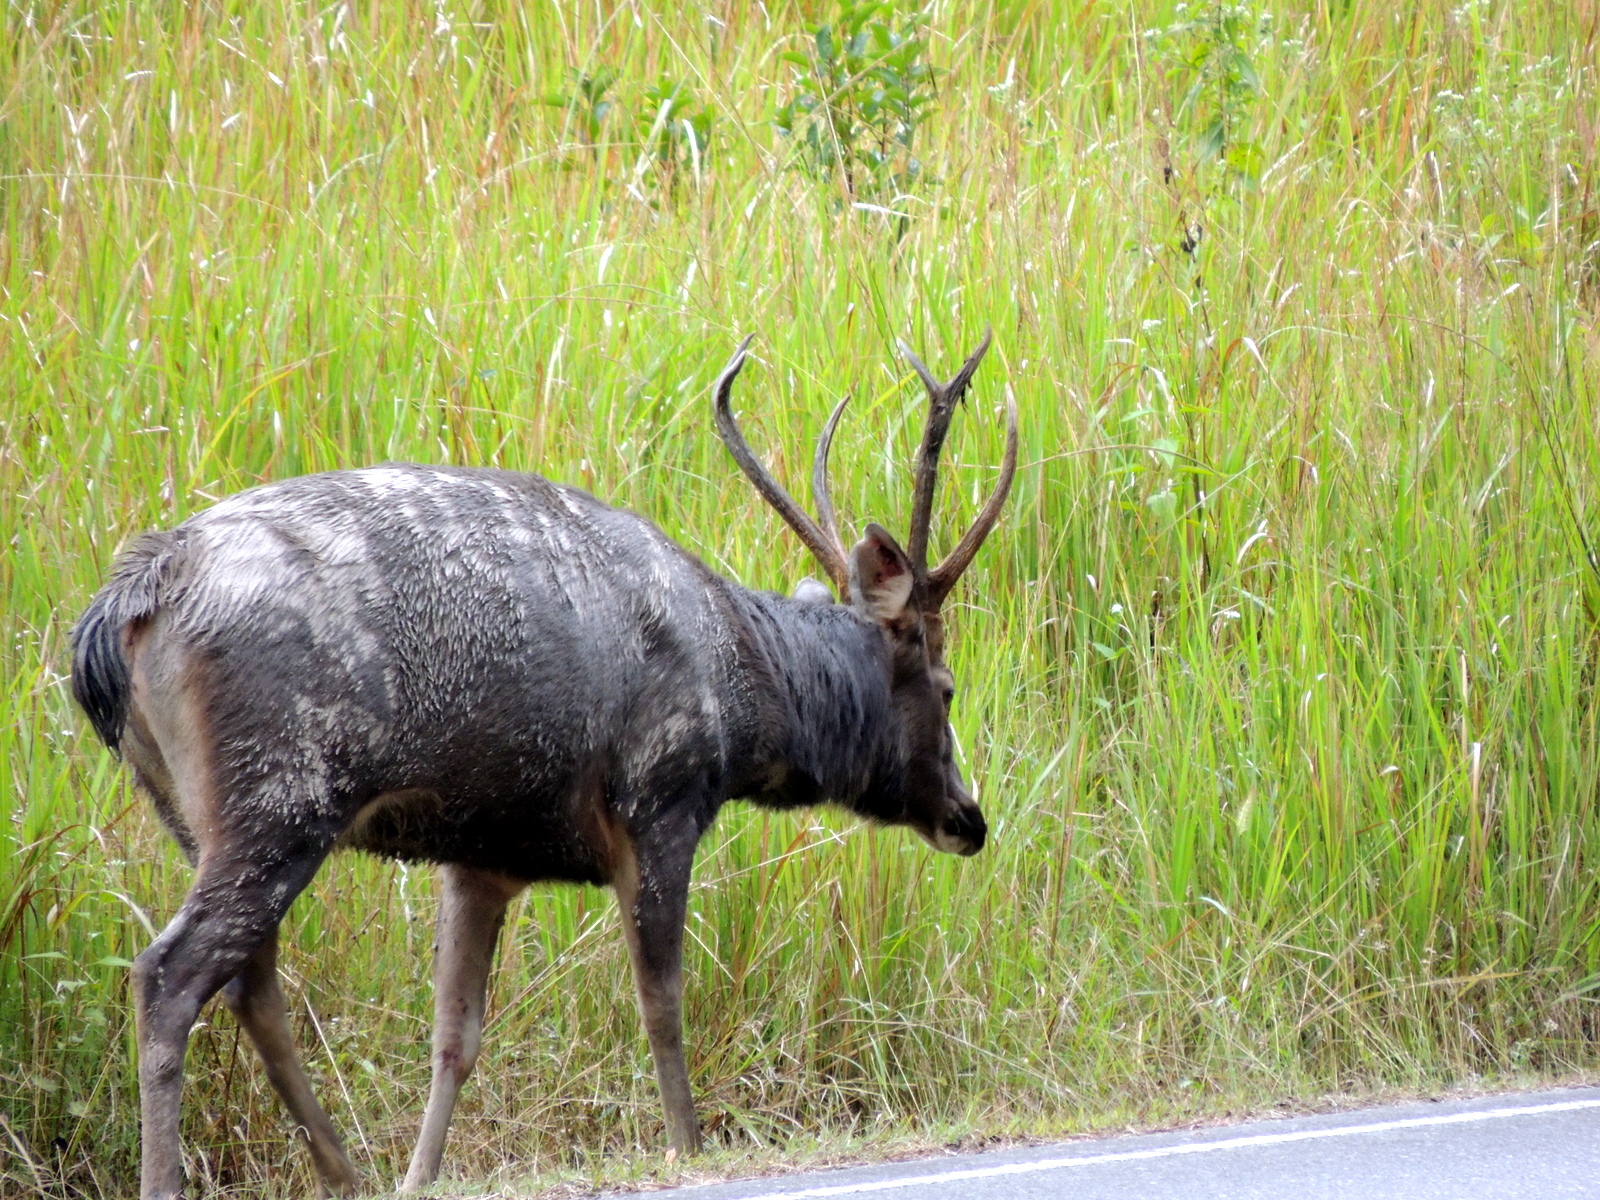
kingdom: Animalia
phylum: Chordata
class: Mammalia
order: Artiodactyla
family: Cervidae
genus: Rusa
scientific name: Rusa unicolor
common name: Sambar
